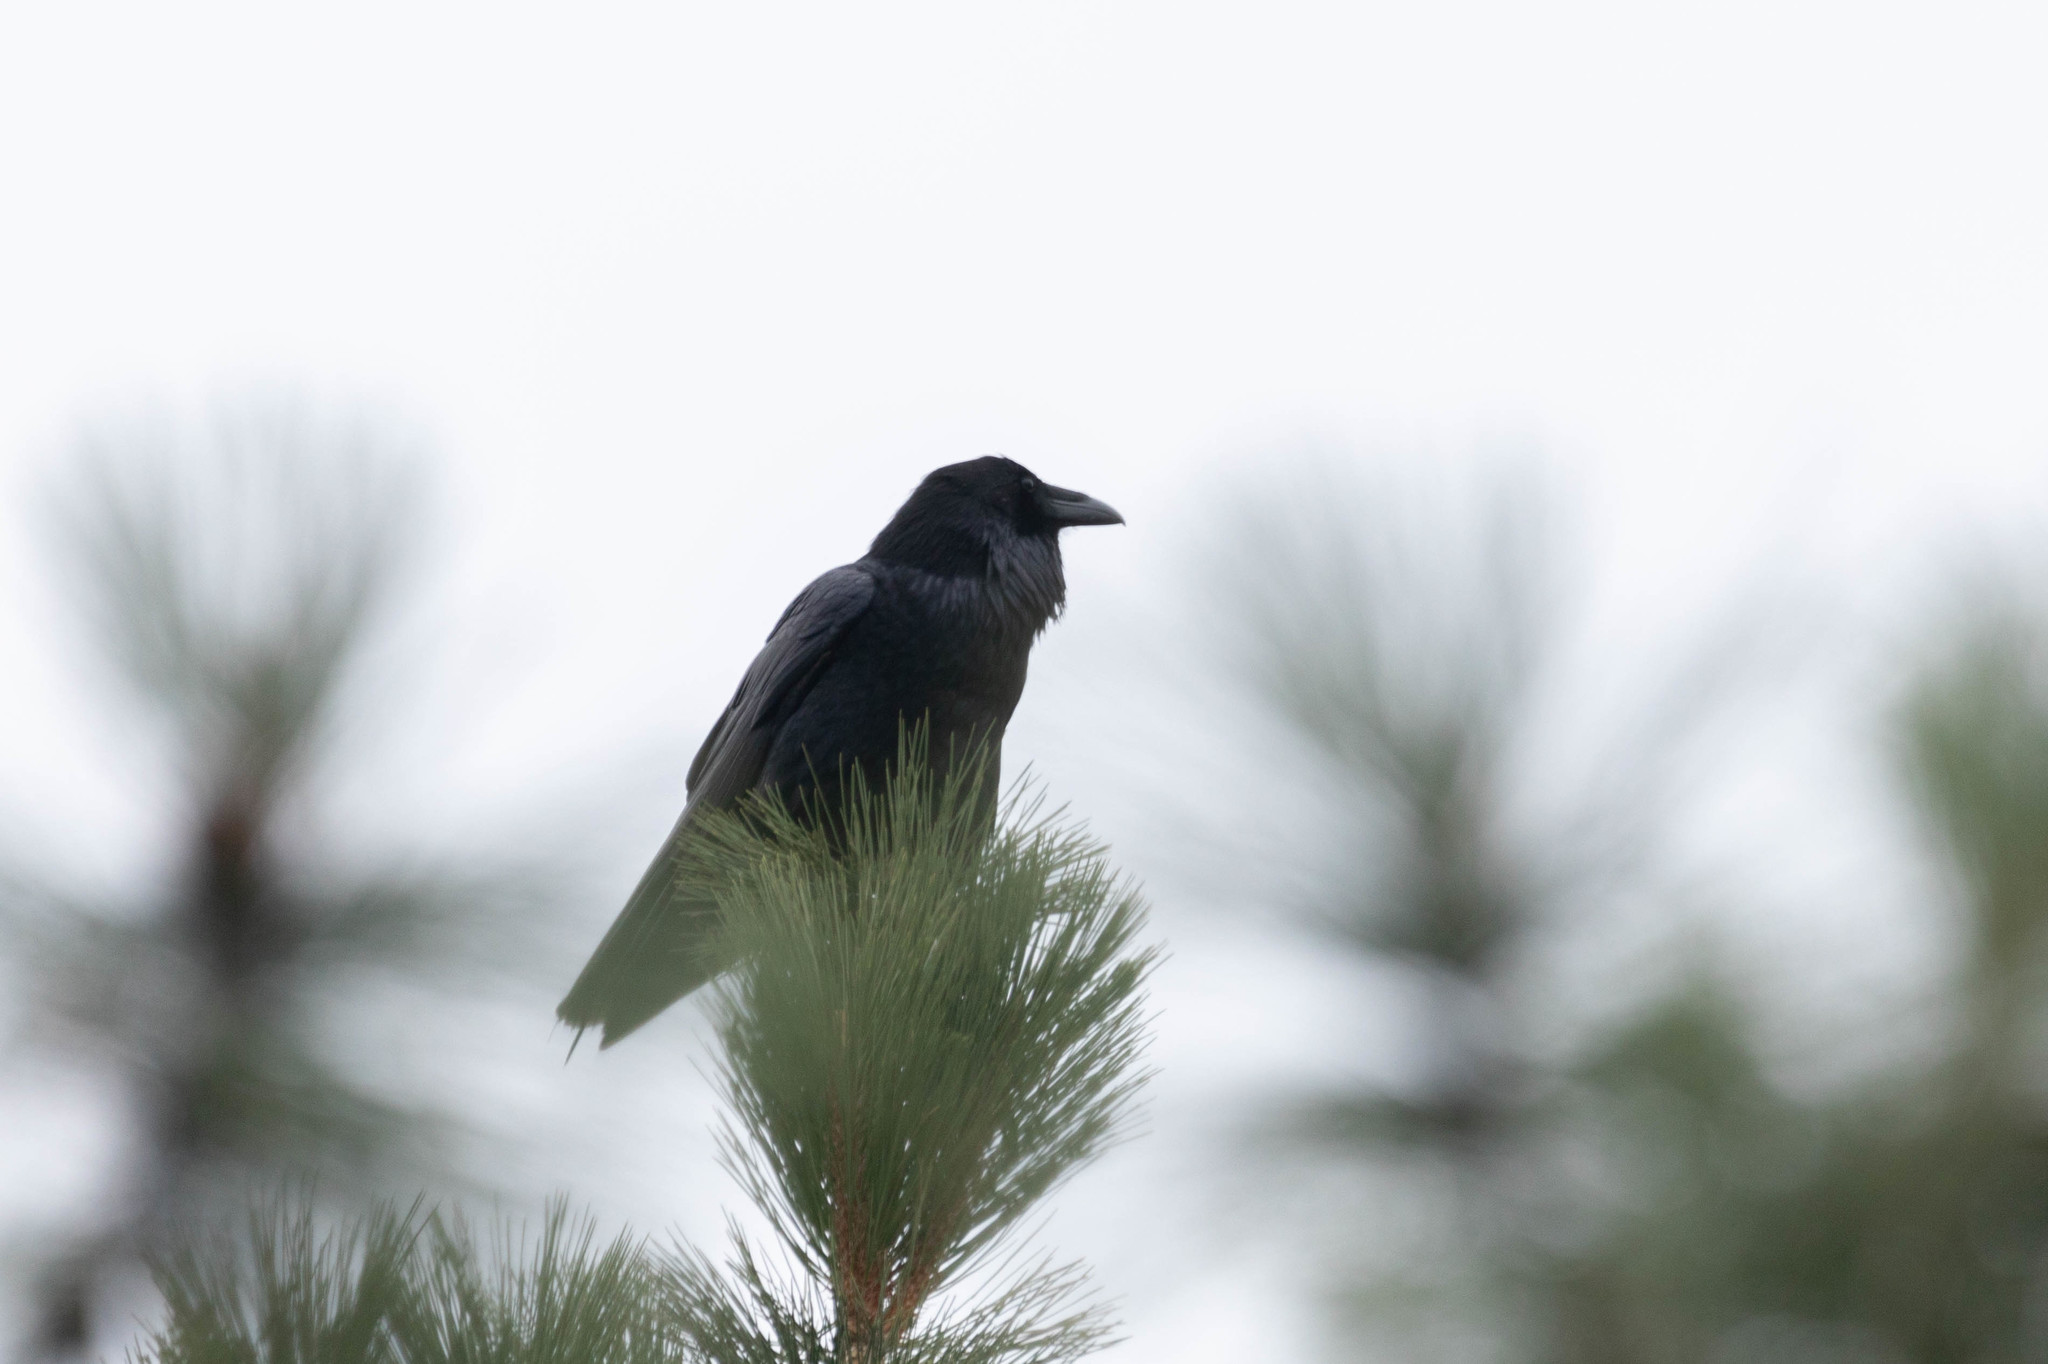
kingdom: Animalia
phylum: Chordata
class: Aves
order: Passeriformes
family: Corvidae
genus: Corvus
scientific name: Corvus corax
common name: Common raven
